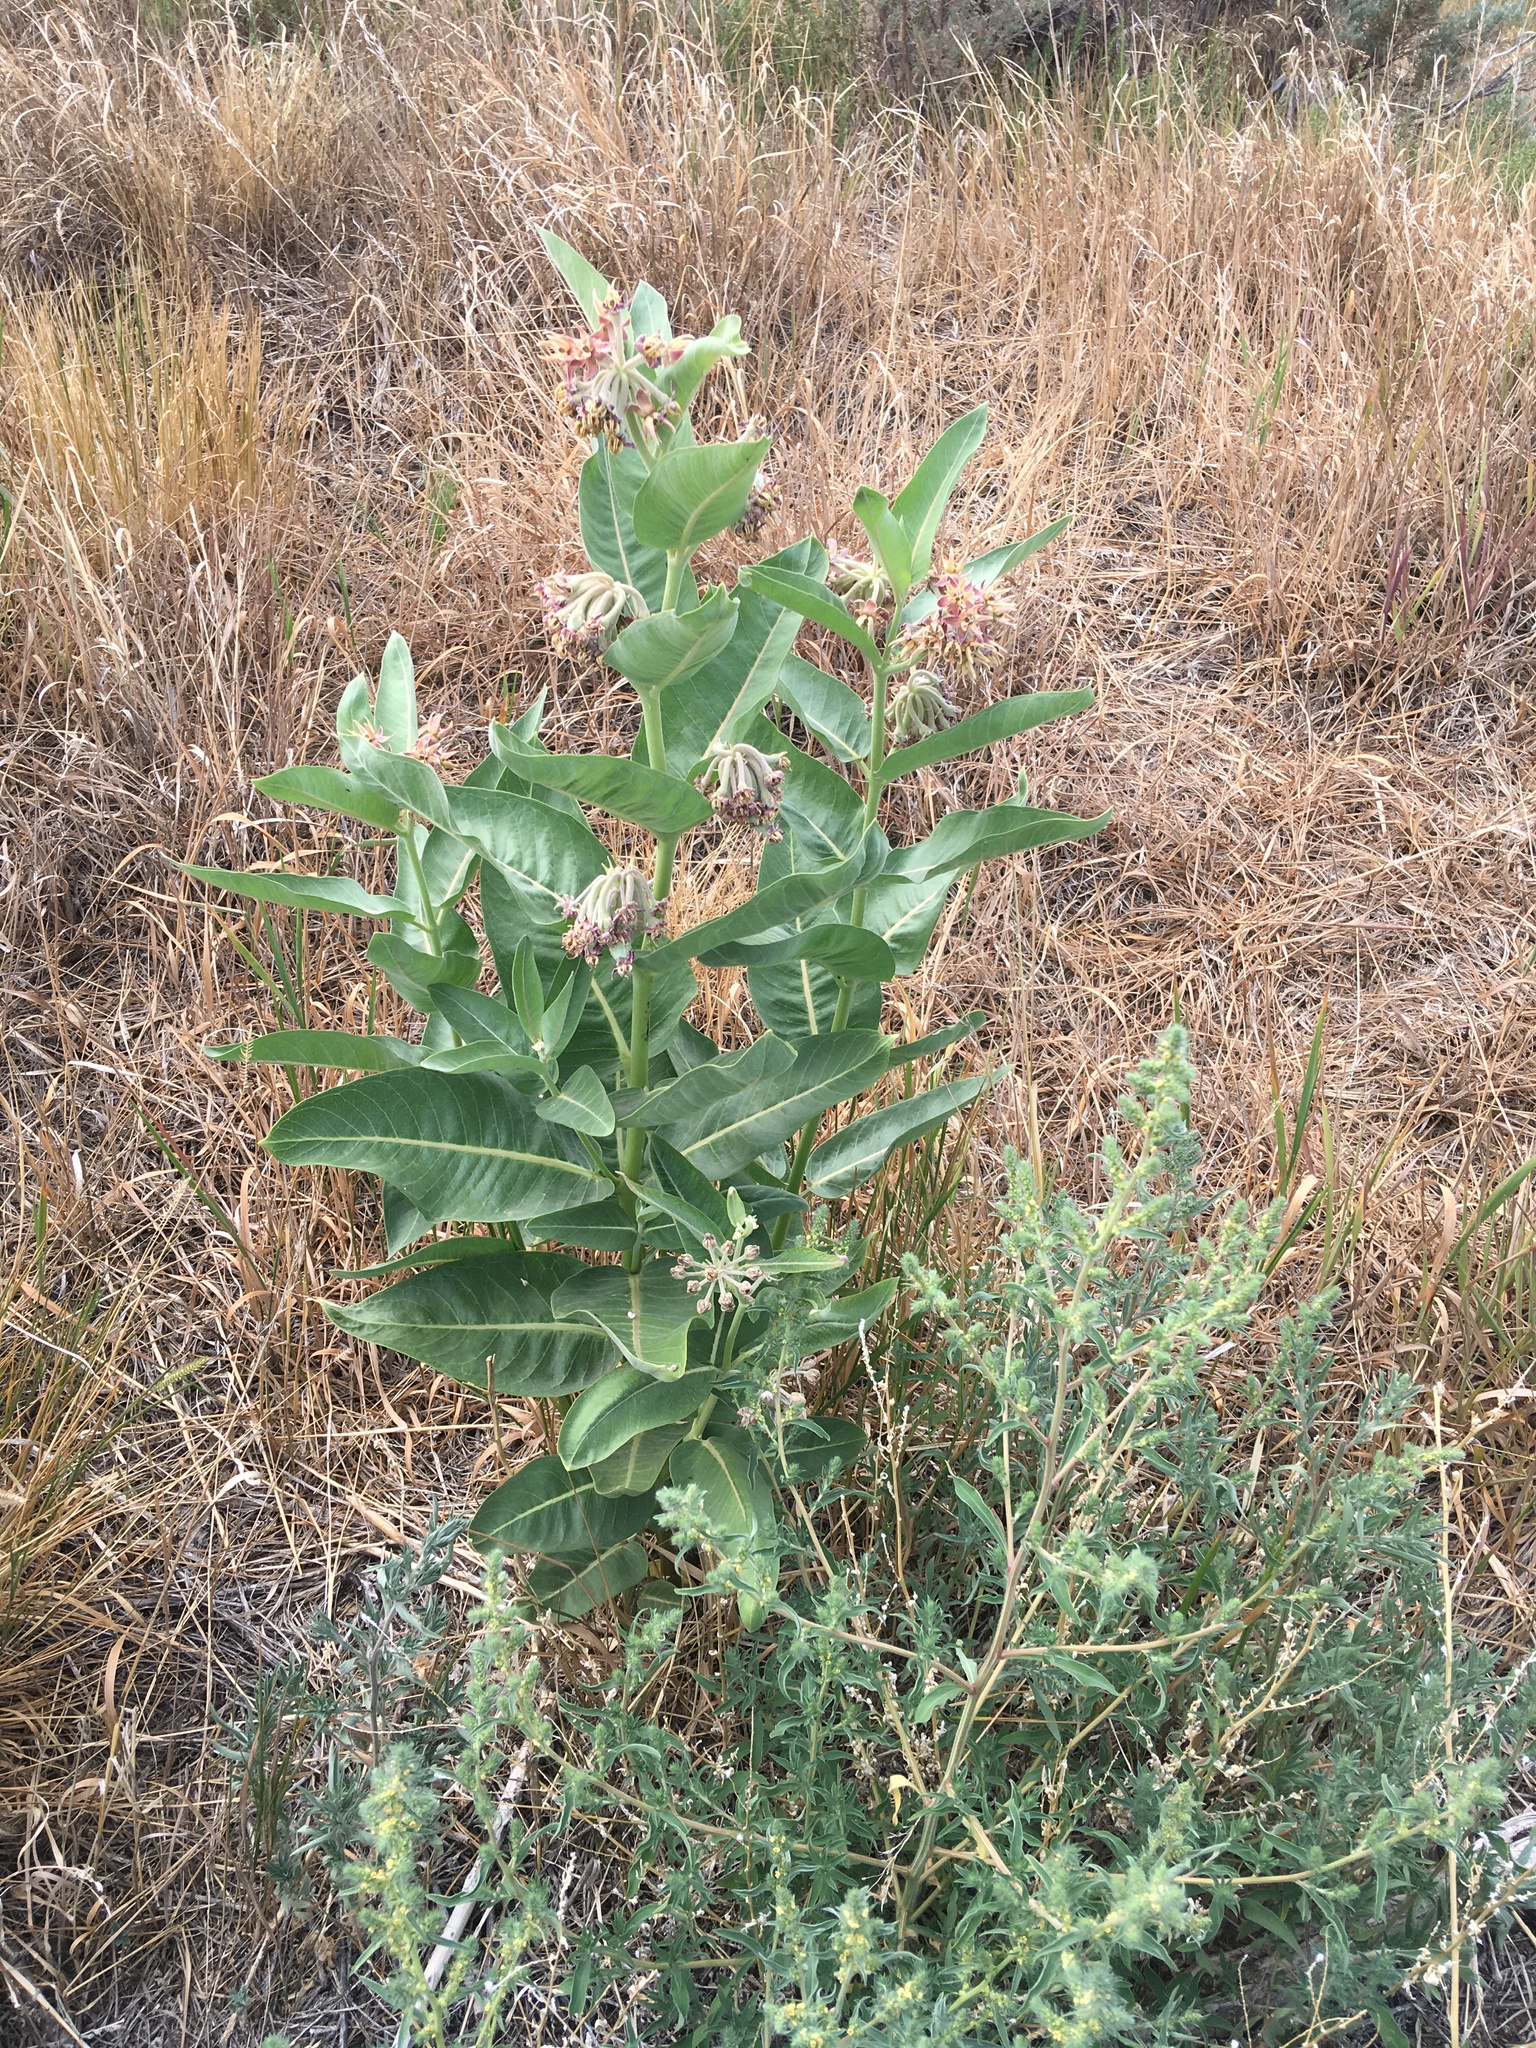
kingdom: Plantae
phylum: Tracheophyta
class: Magnoliopsida
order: Gentianales
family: Apocynaceae
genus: Asclepias
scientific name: Asclepias speciosa
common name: Showy milkweed
